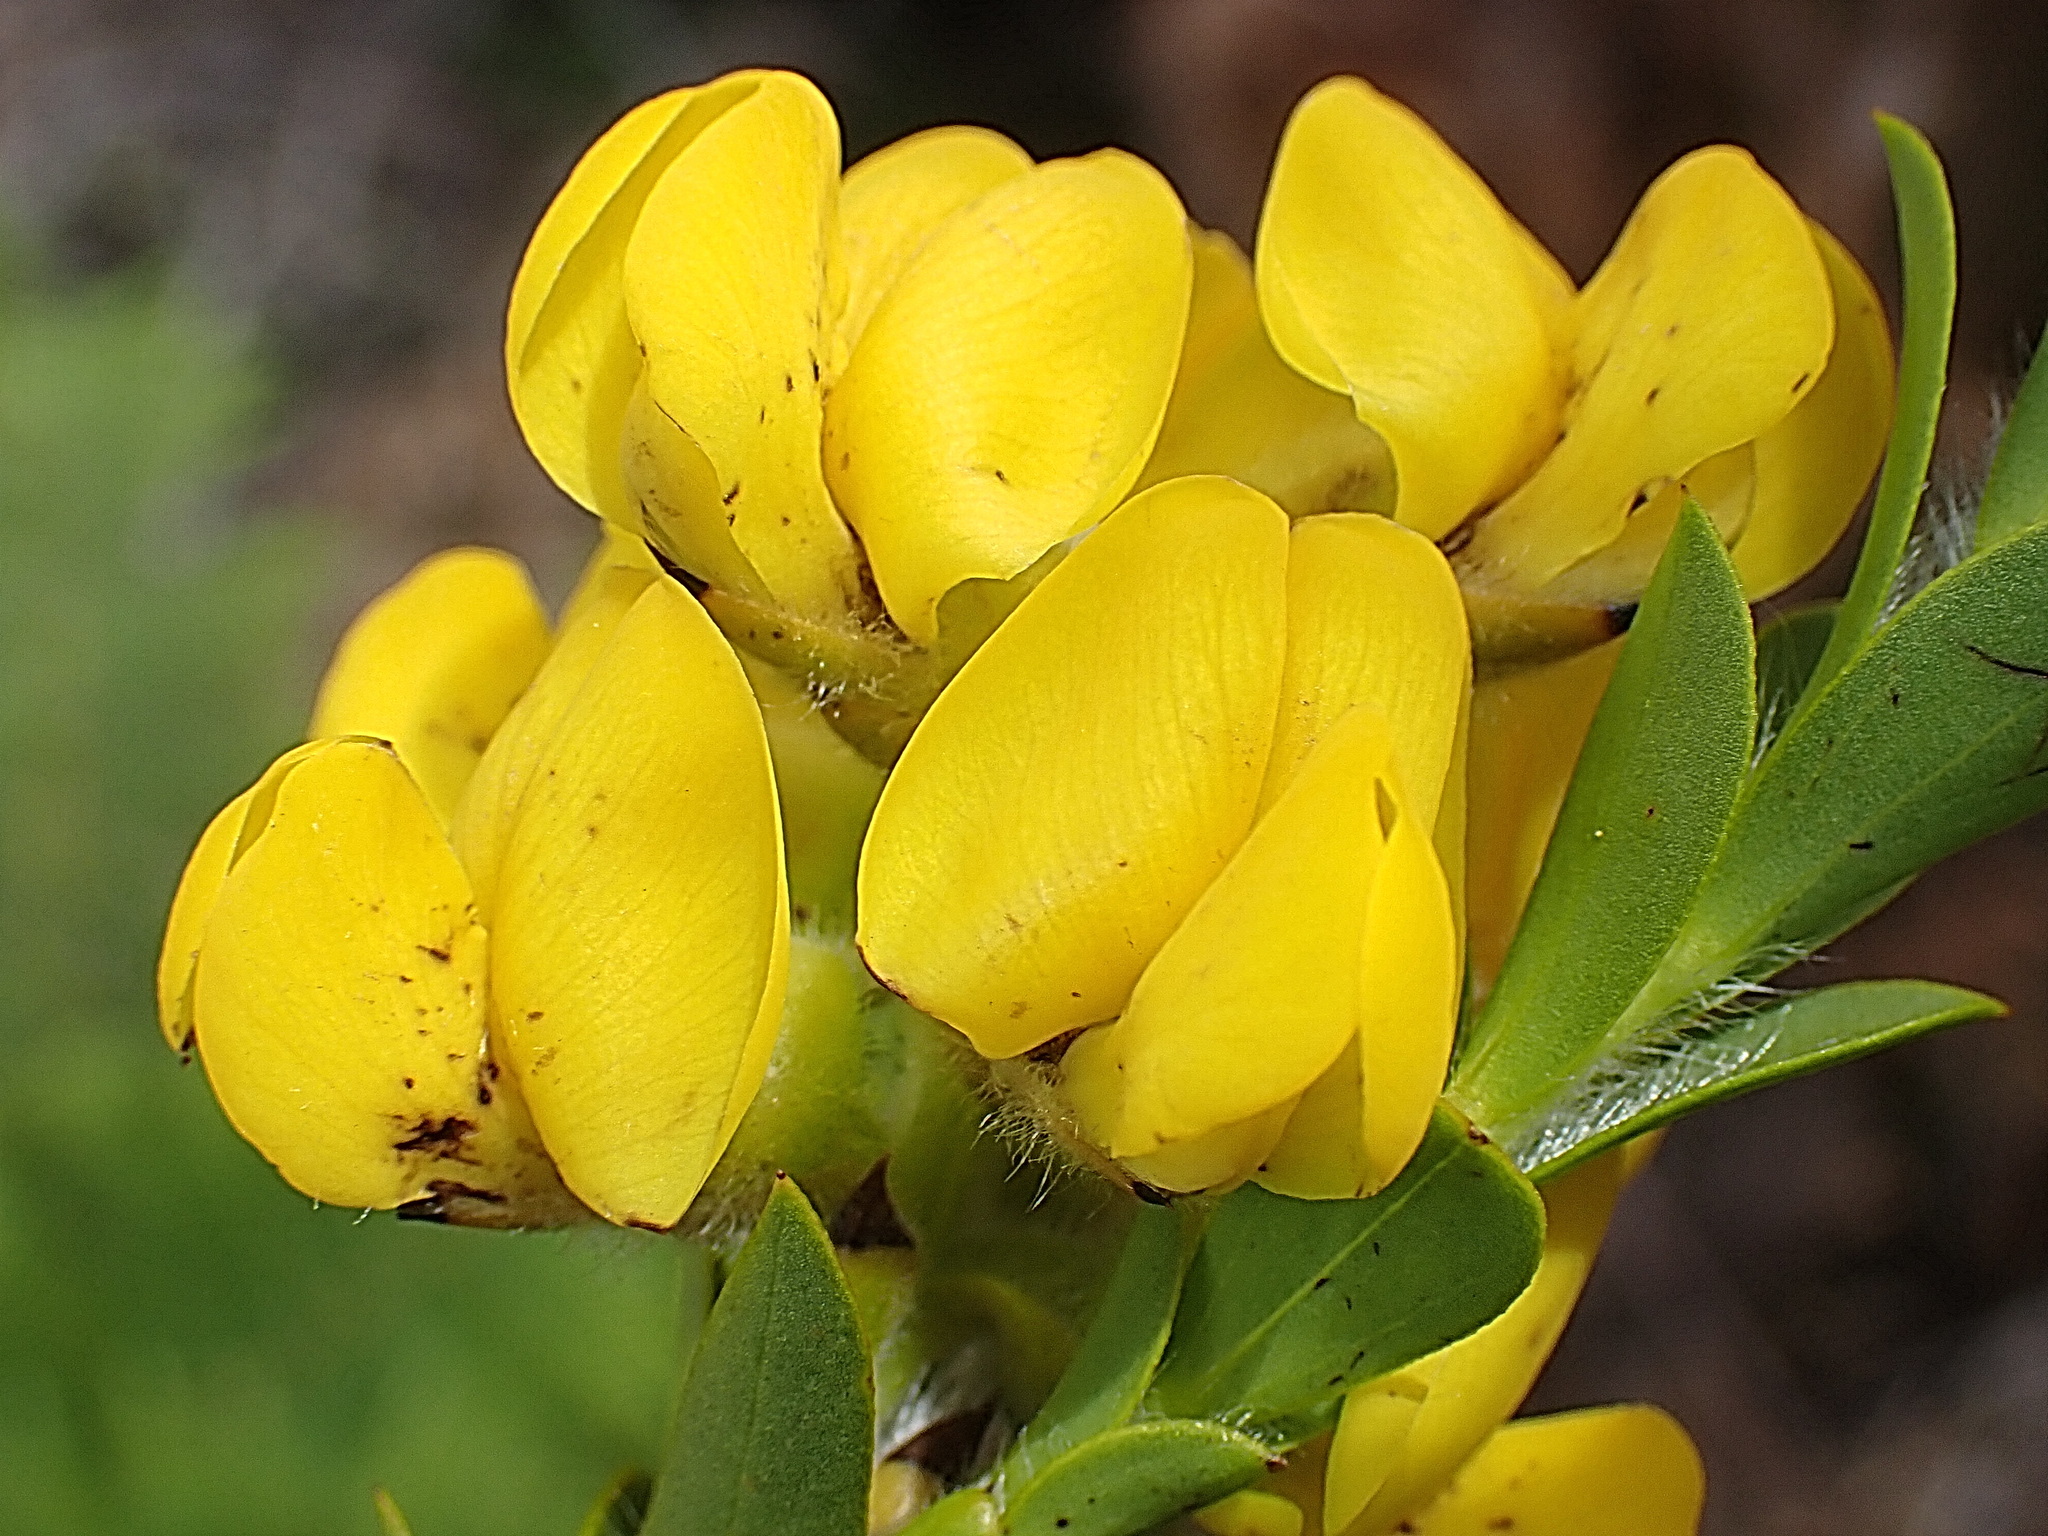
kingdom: Plantae
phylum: Tracheophyta
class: Magnoliopsida
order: Fabales
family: Fabaceae
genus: Liparia
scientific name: Liparia hirsuta
